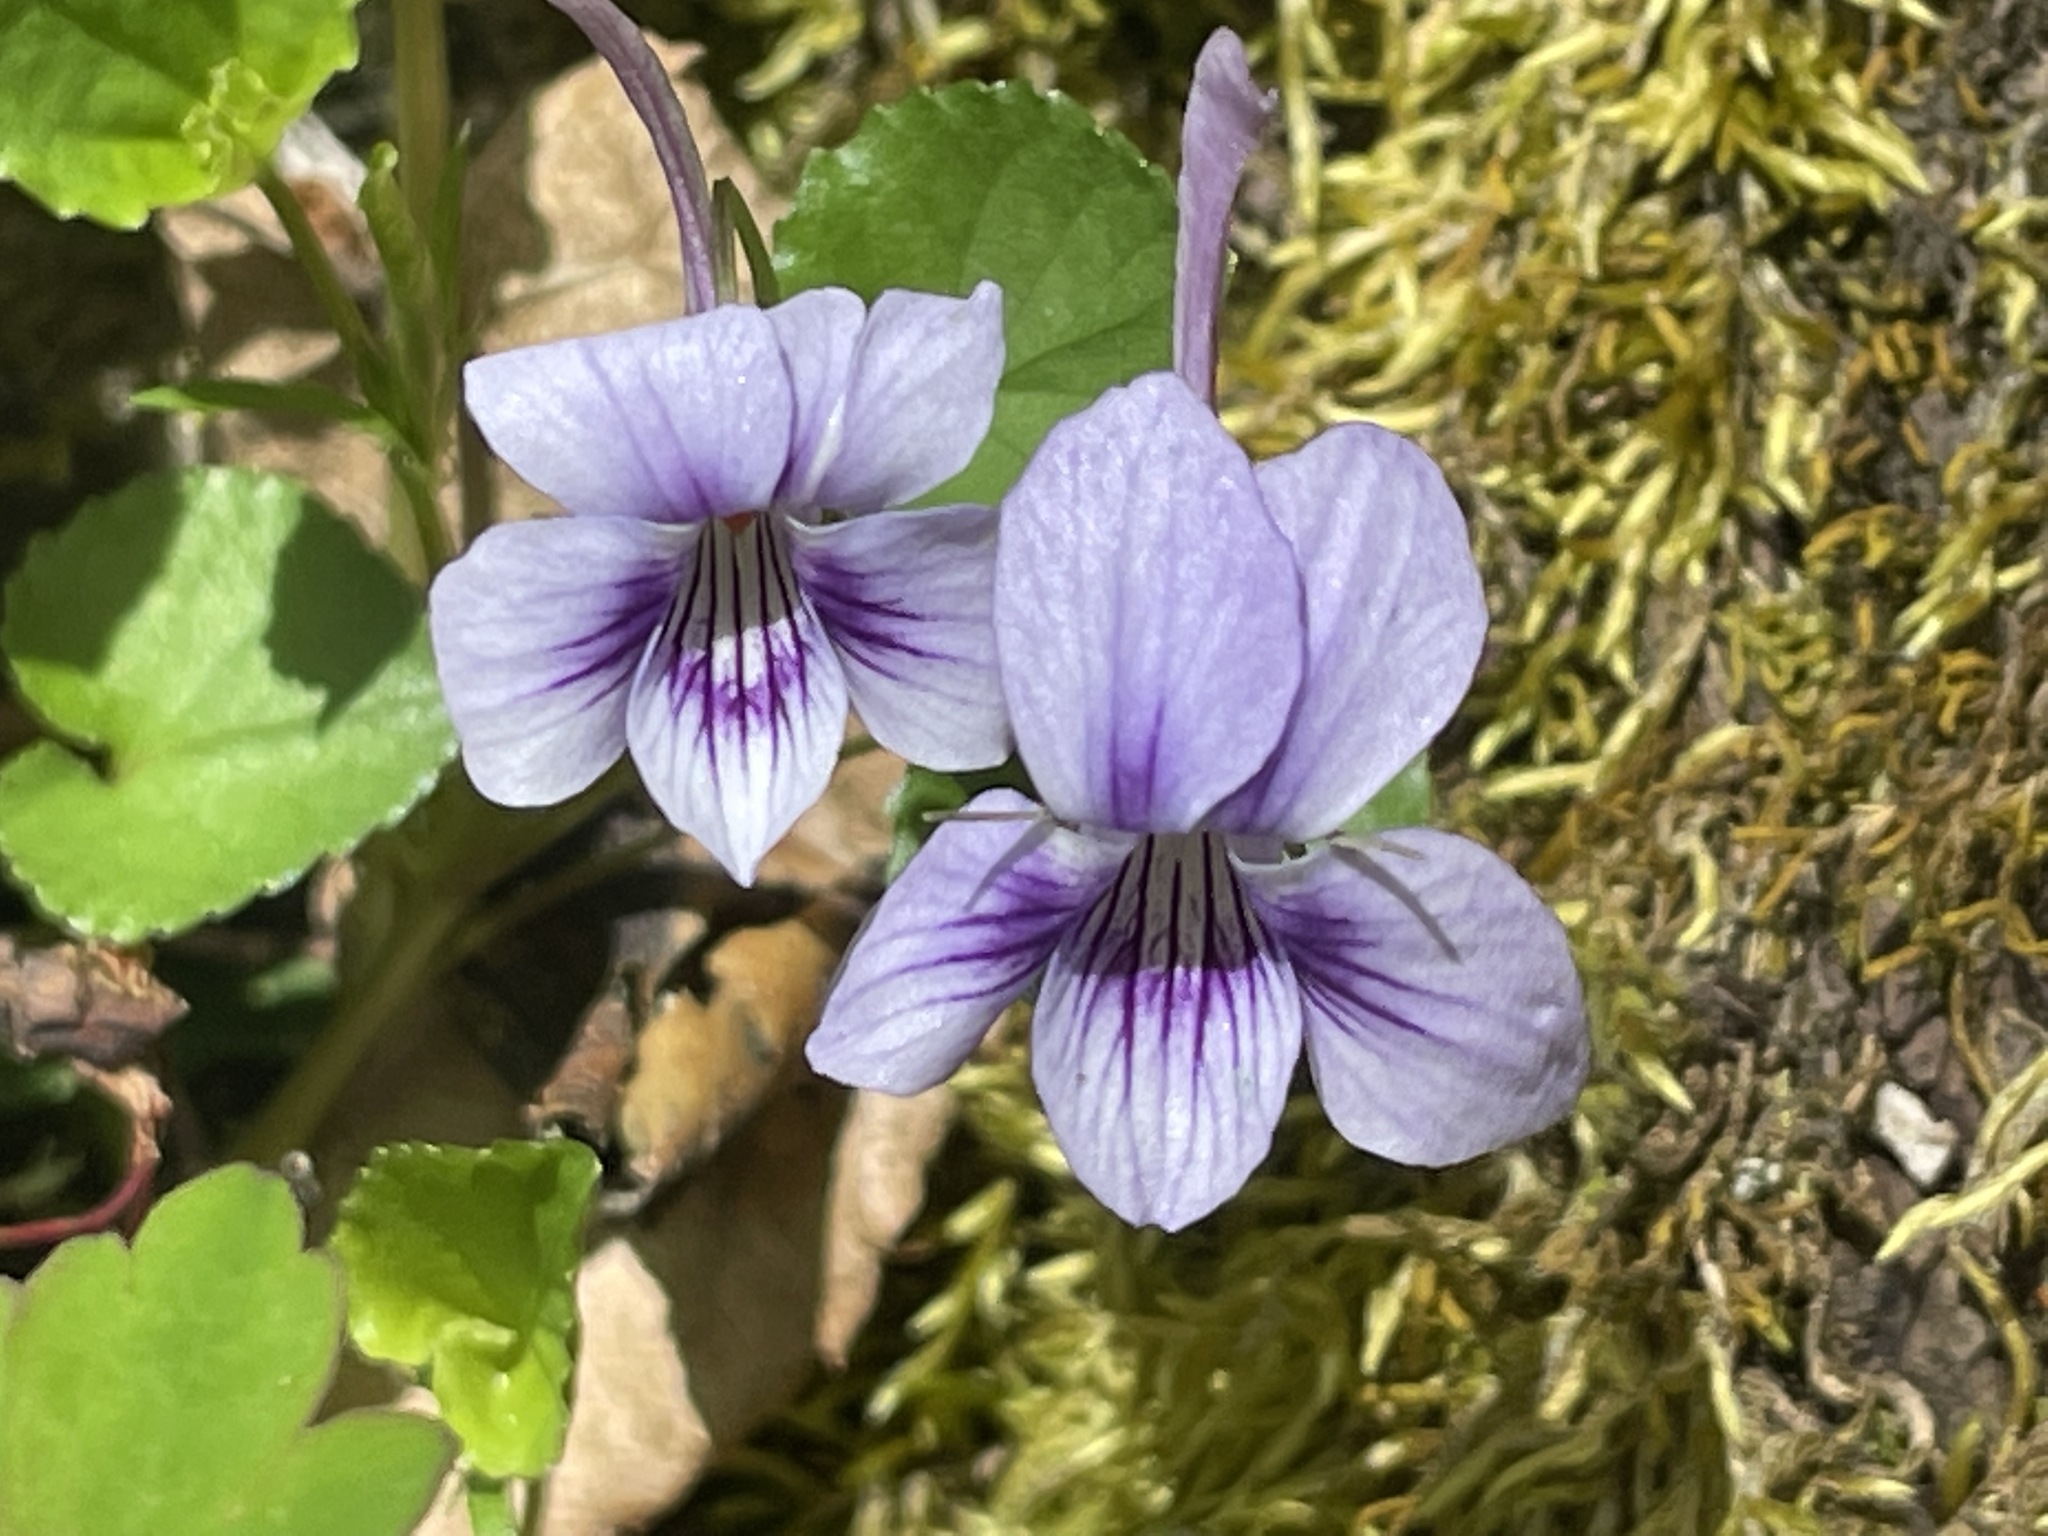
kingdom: Plantae
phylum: Tracheophyta
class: Magnoliopsida
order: Malpighiales
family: Violaceae
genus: Viola
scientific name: Viola rostrata
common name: Long-spur violet
